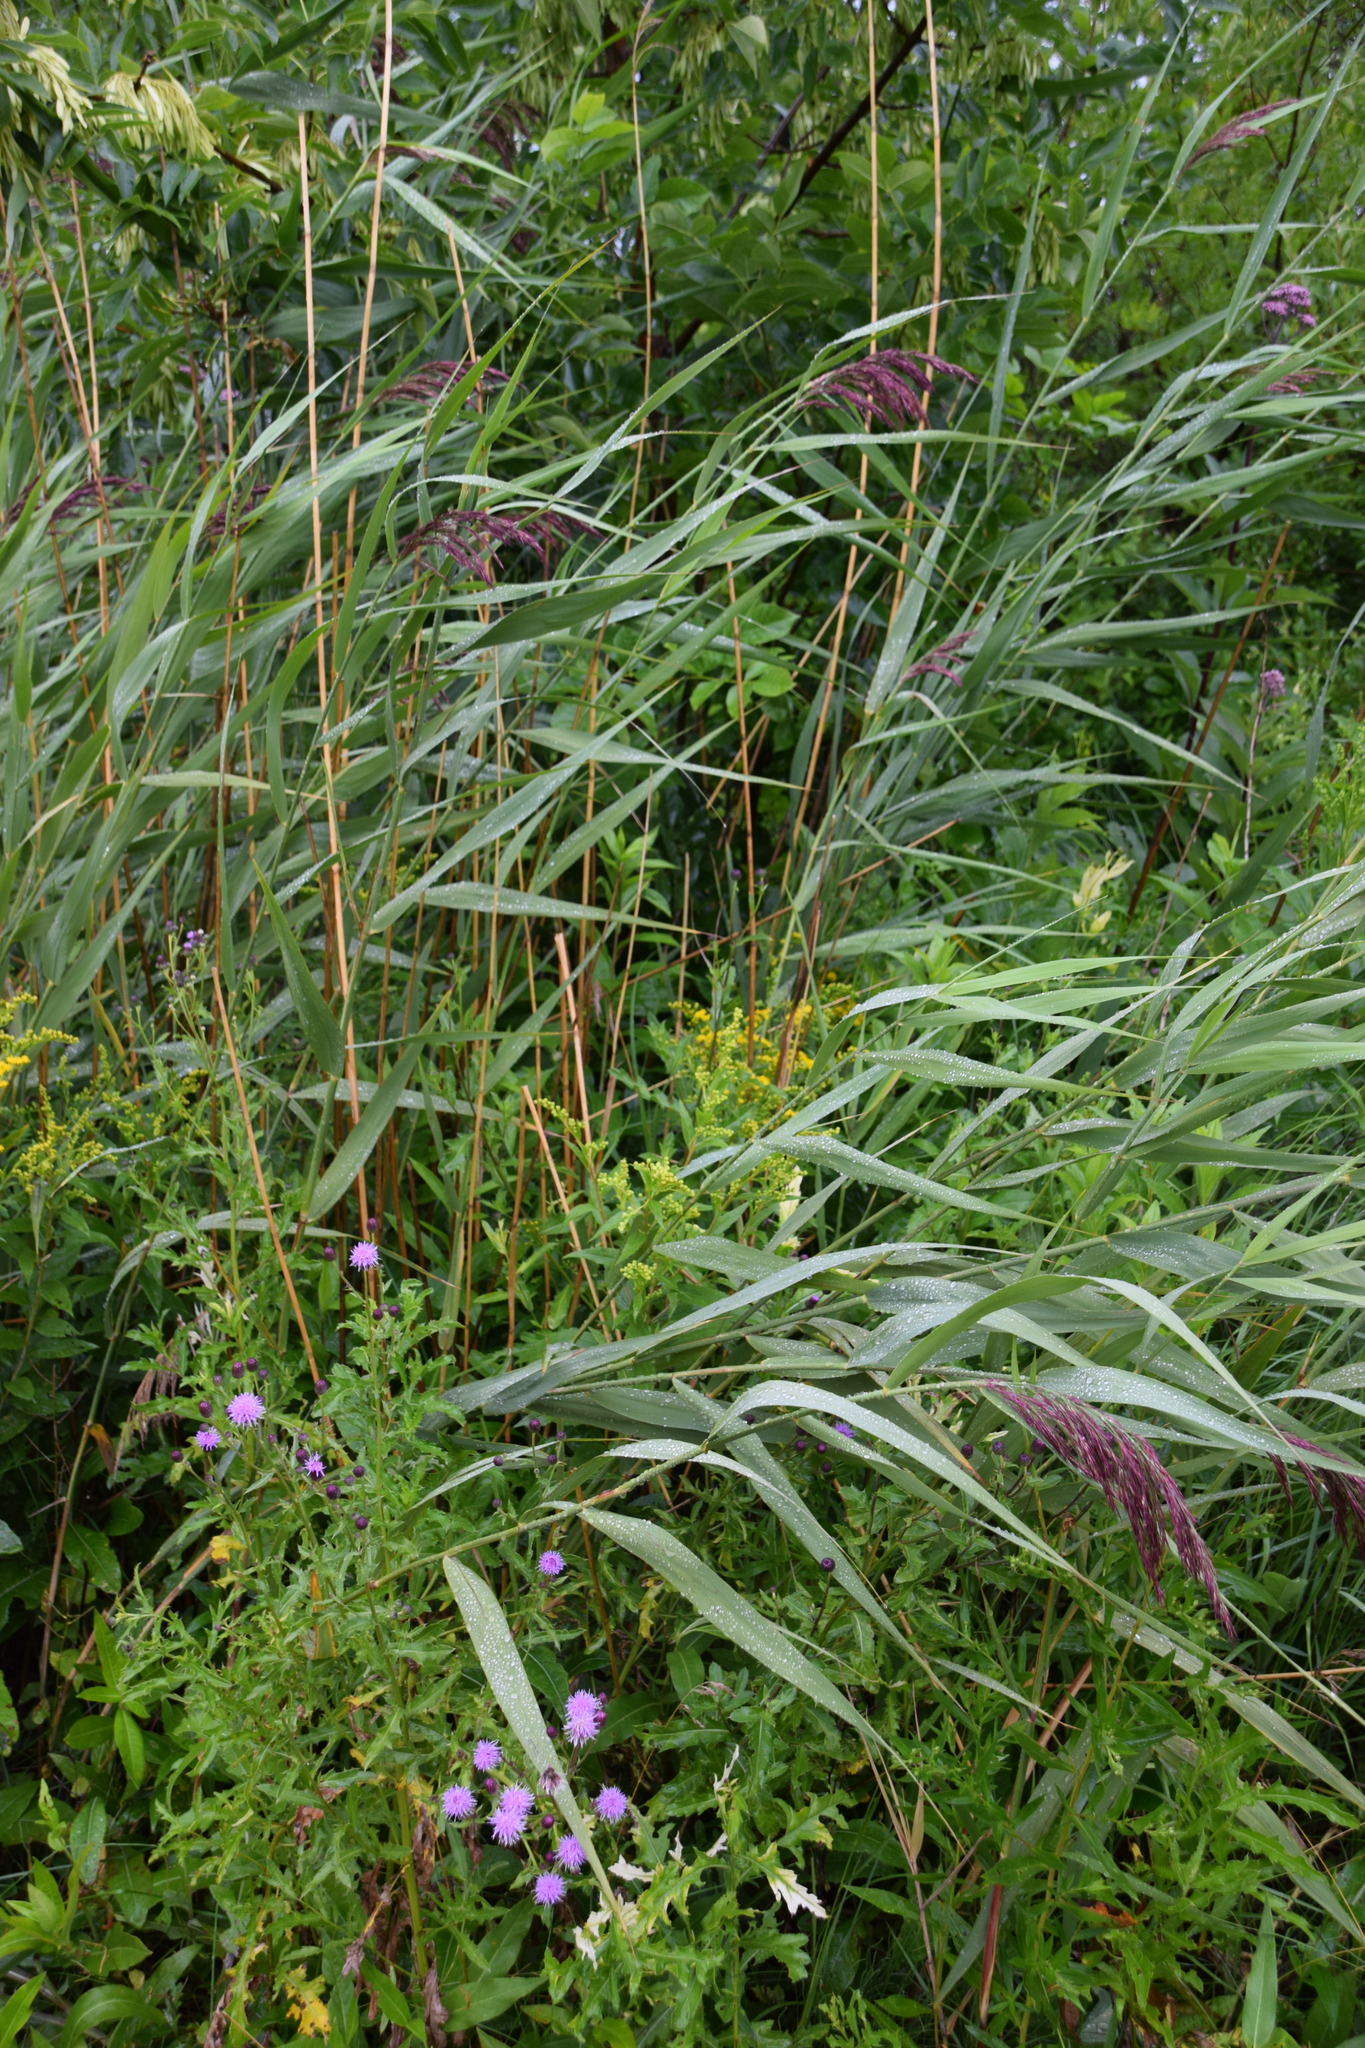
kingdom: Plantae
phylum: Tracheophyta
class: Liliopsida
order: Poales
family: Poaceae
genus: Phragmites
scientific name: Phragmites australis
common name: Common reed
